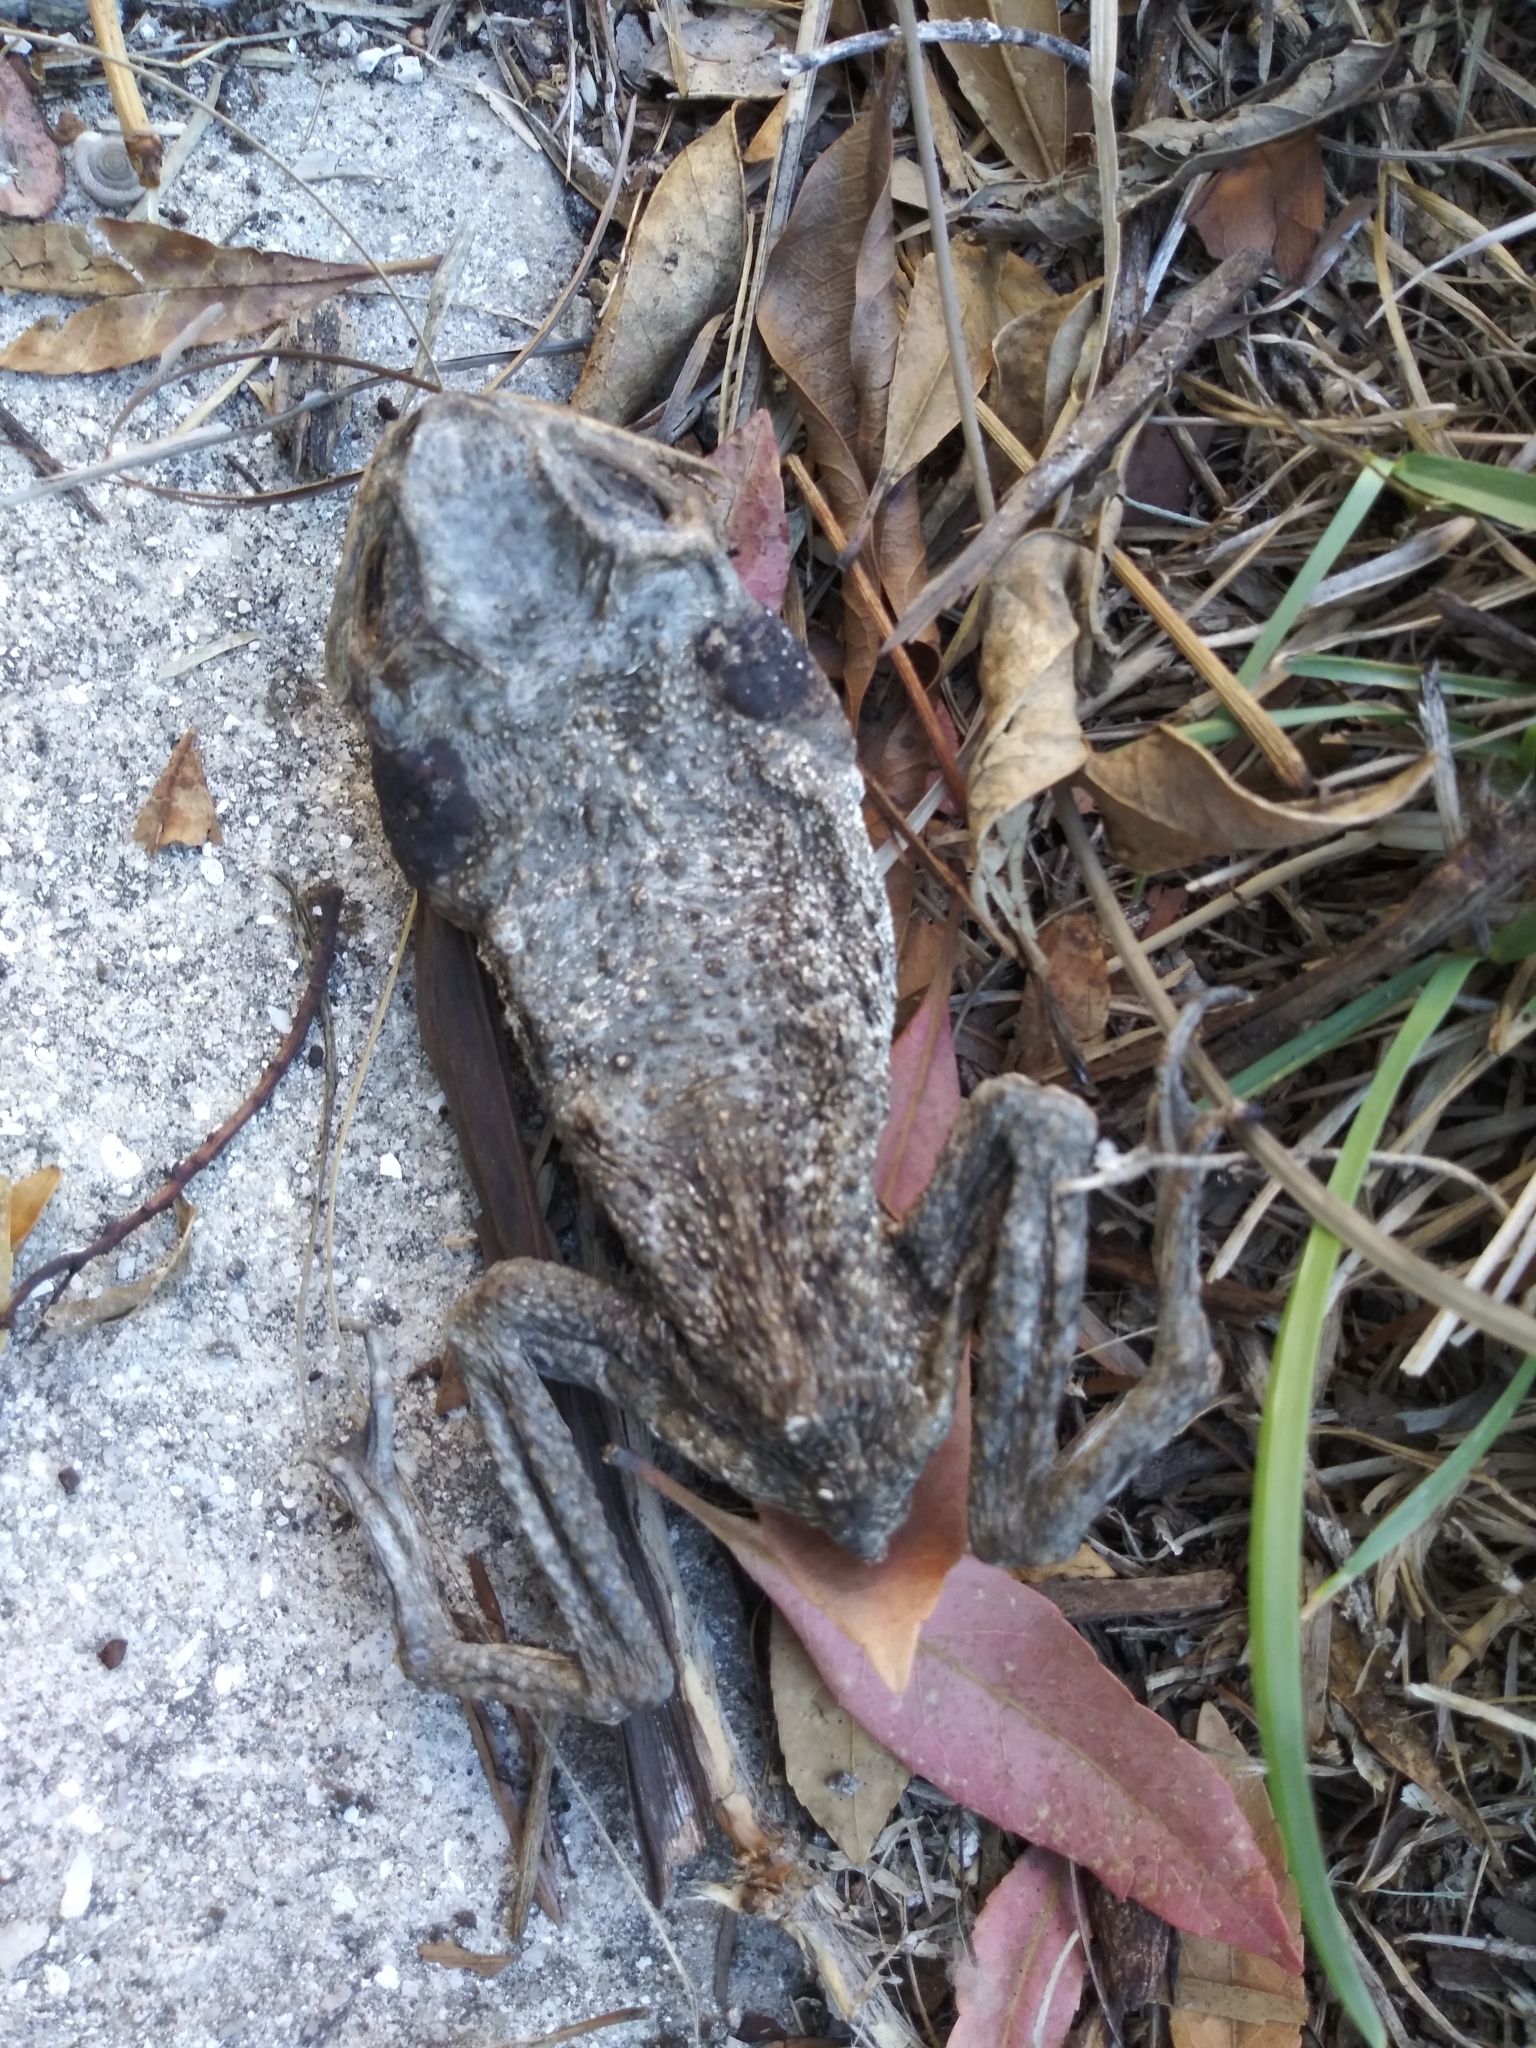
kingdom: Animalia
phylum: Chordata
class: Amphibia
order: Anura
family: Bufonidae
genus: Rhinella
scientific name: Rhinella marina
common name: Cane toad
